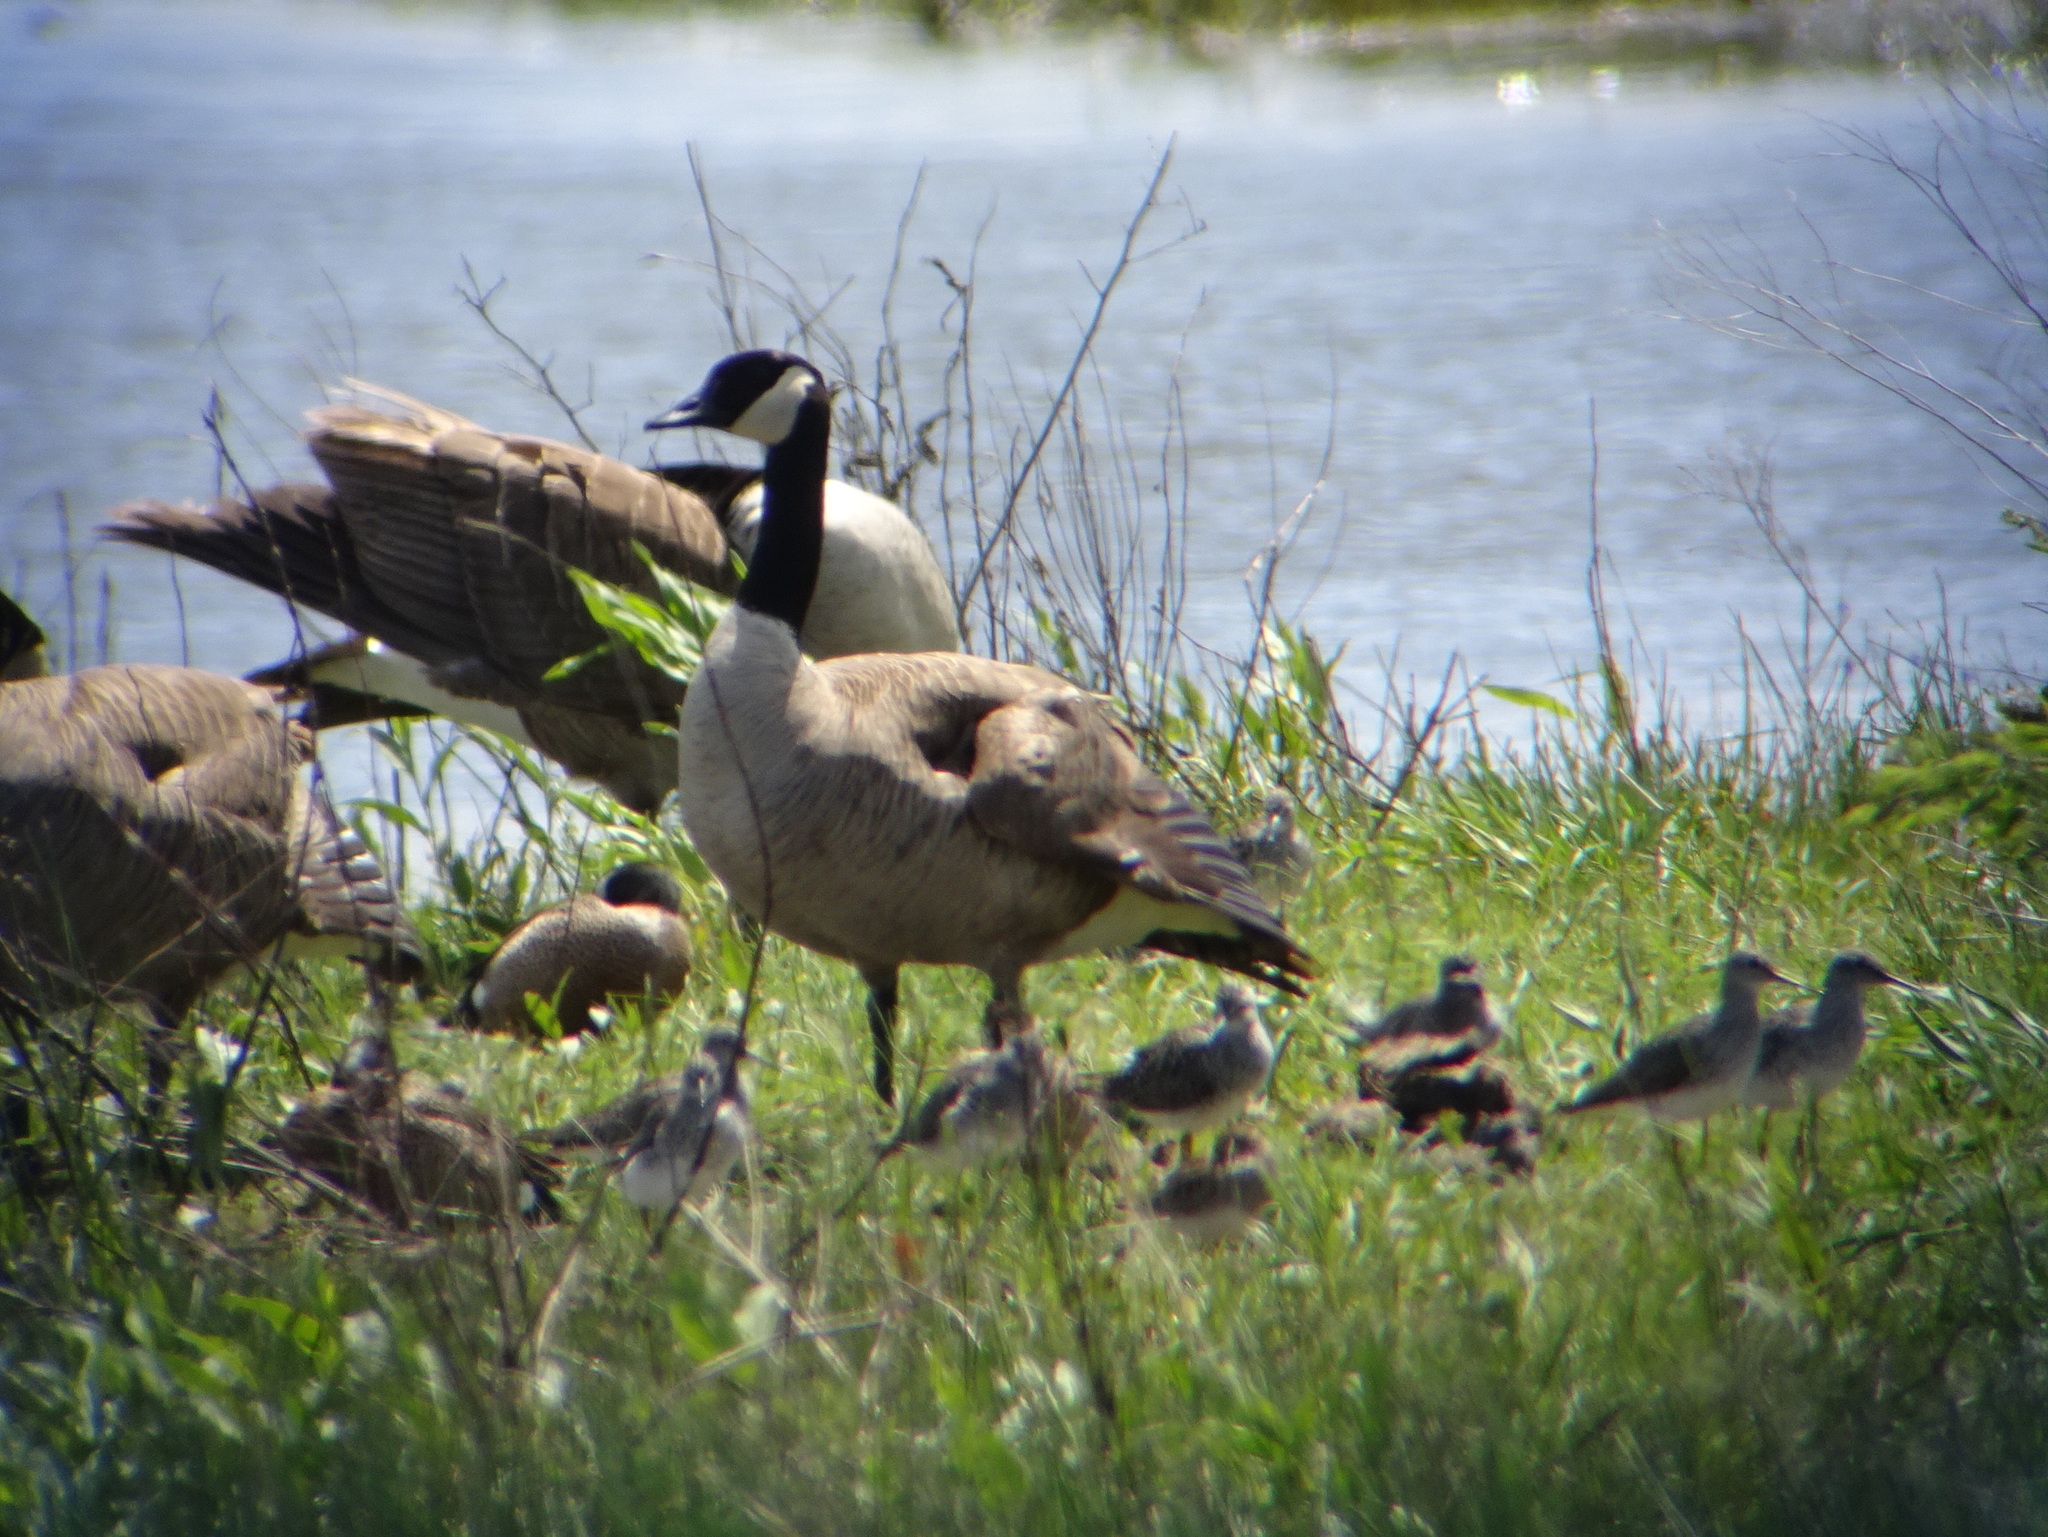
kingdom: Animalia
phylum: Chordata
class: Aves
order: Anseriformes
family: Anatidae
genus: Branta
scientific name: Branta canadensis
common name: Canada goose
